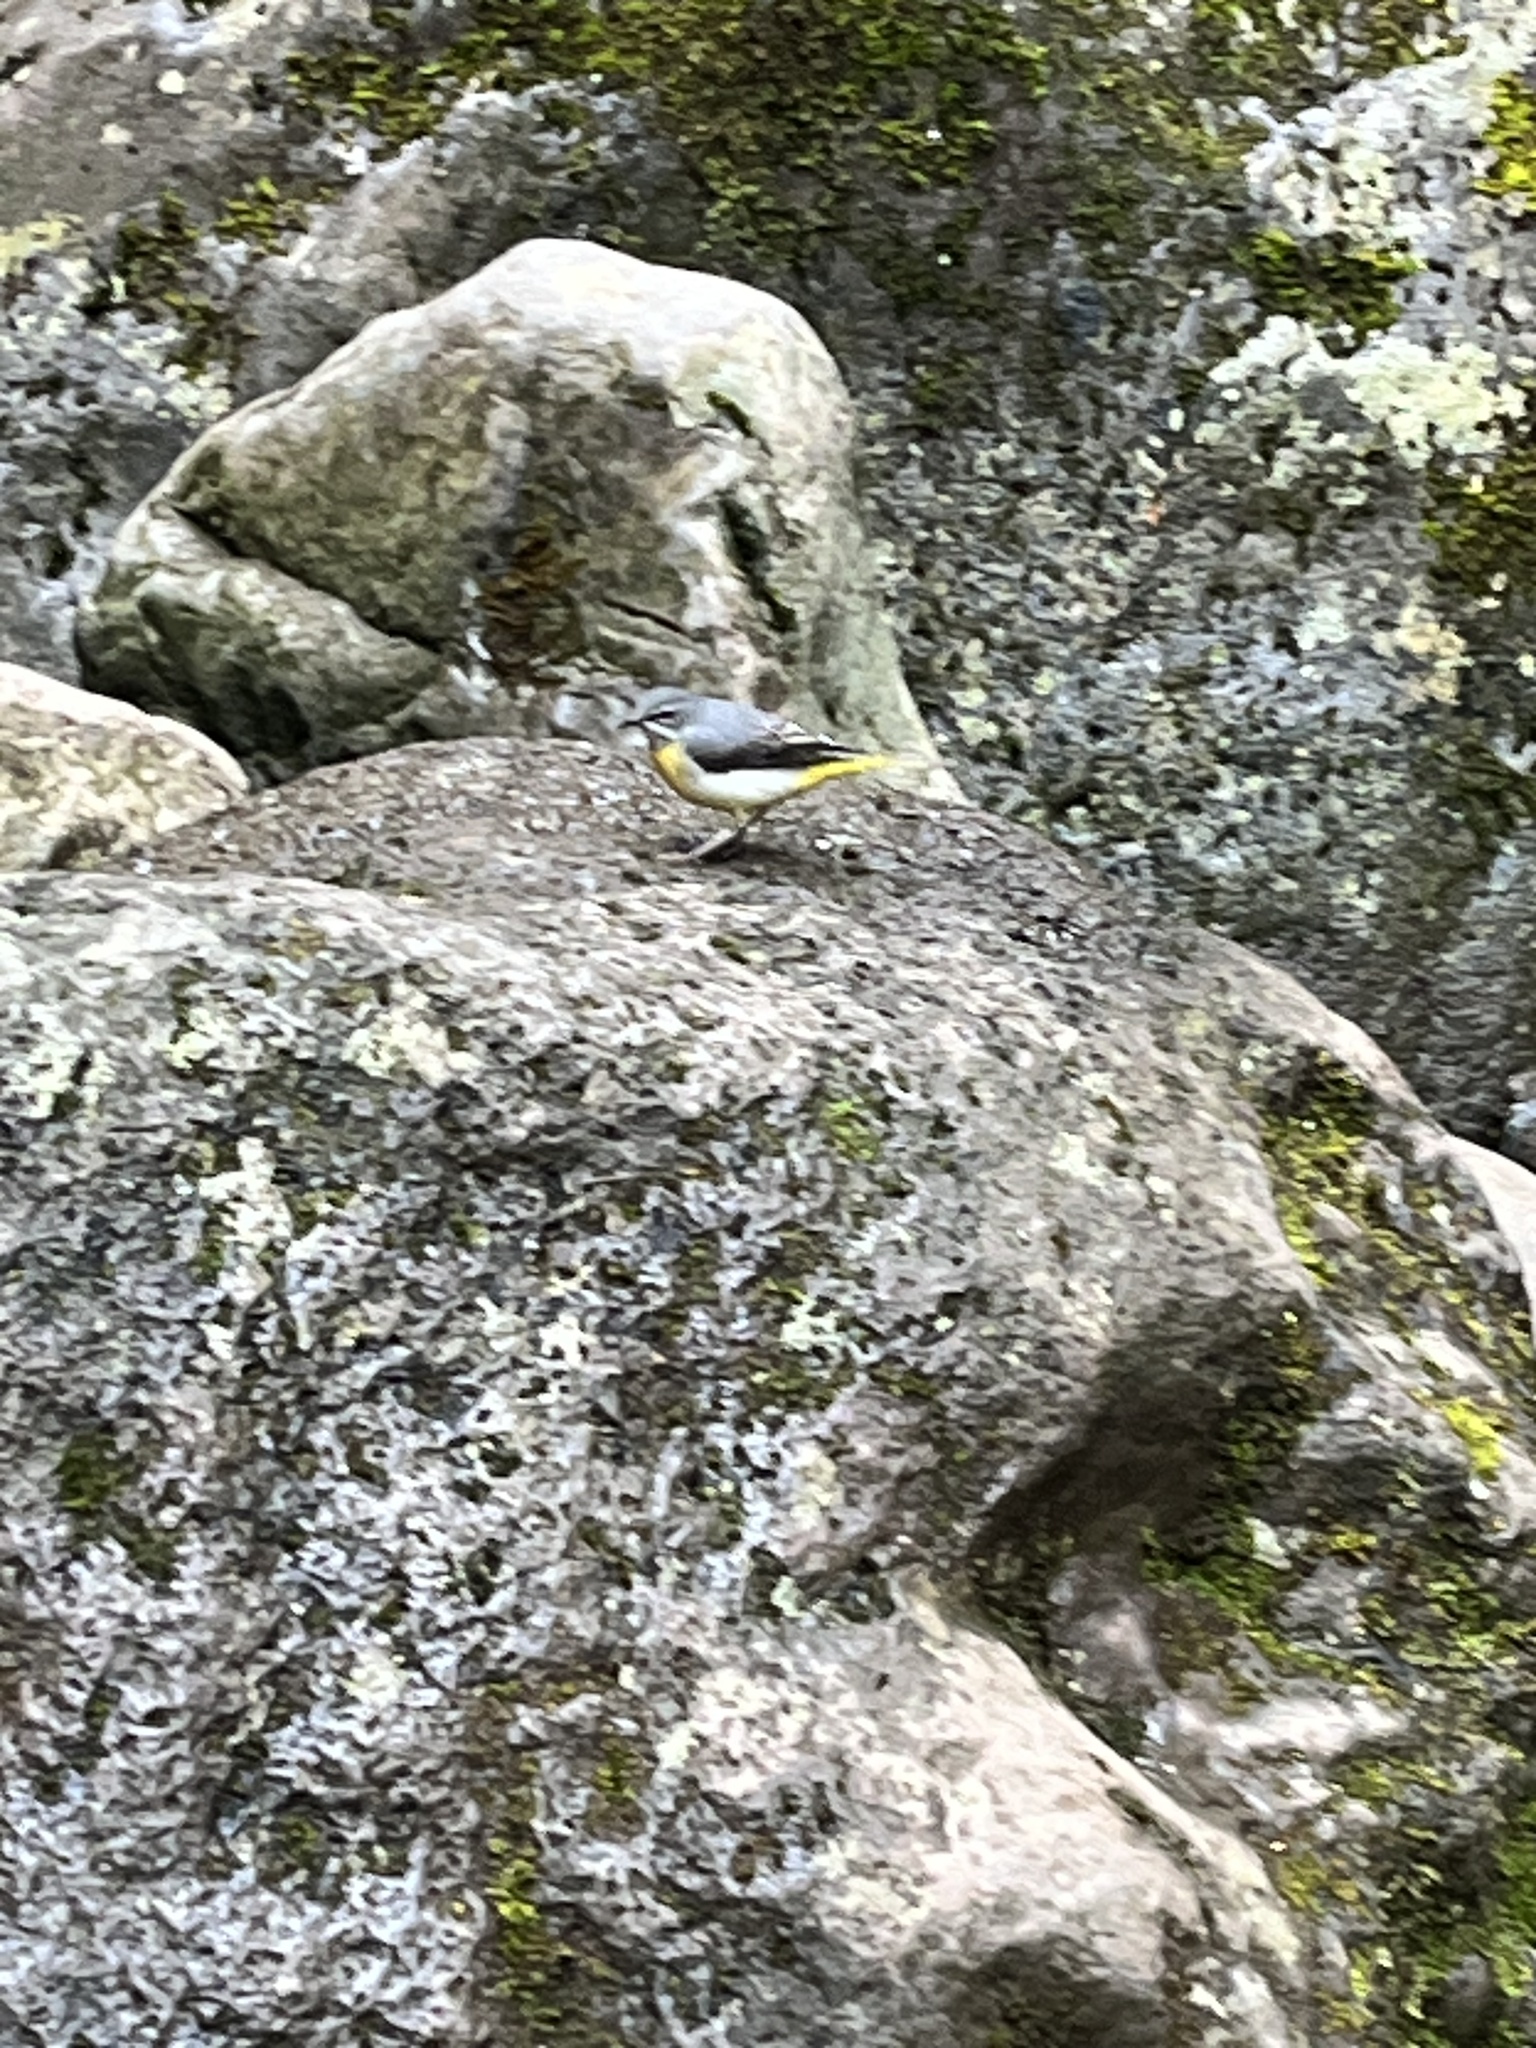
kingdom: Animalia
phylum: Chordata
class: Aves
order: Passeriformes
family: Motacillidae
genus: Motacilla
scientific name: Motacilla cinerea
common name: Grey wagtail
